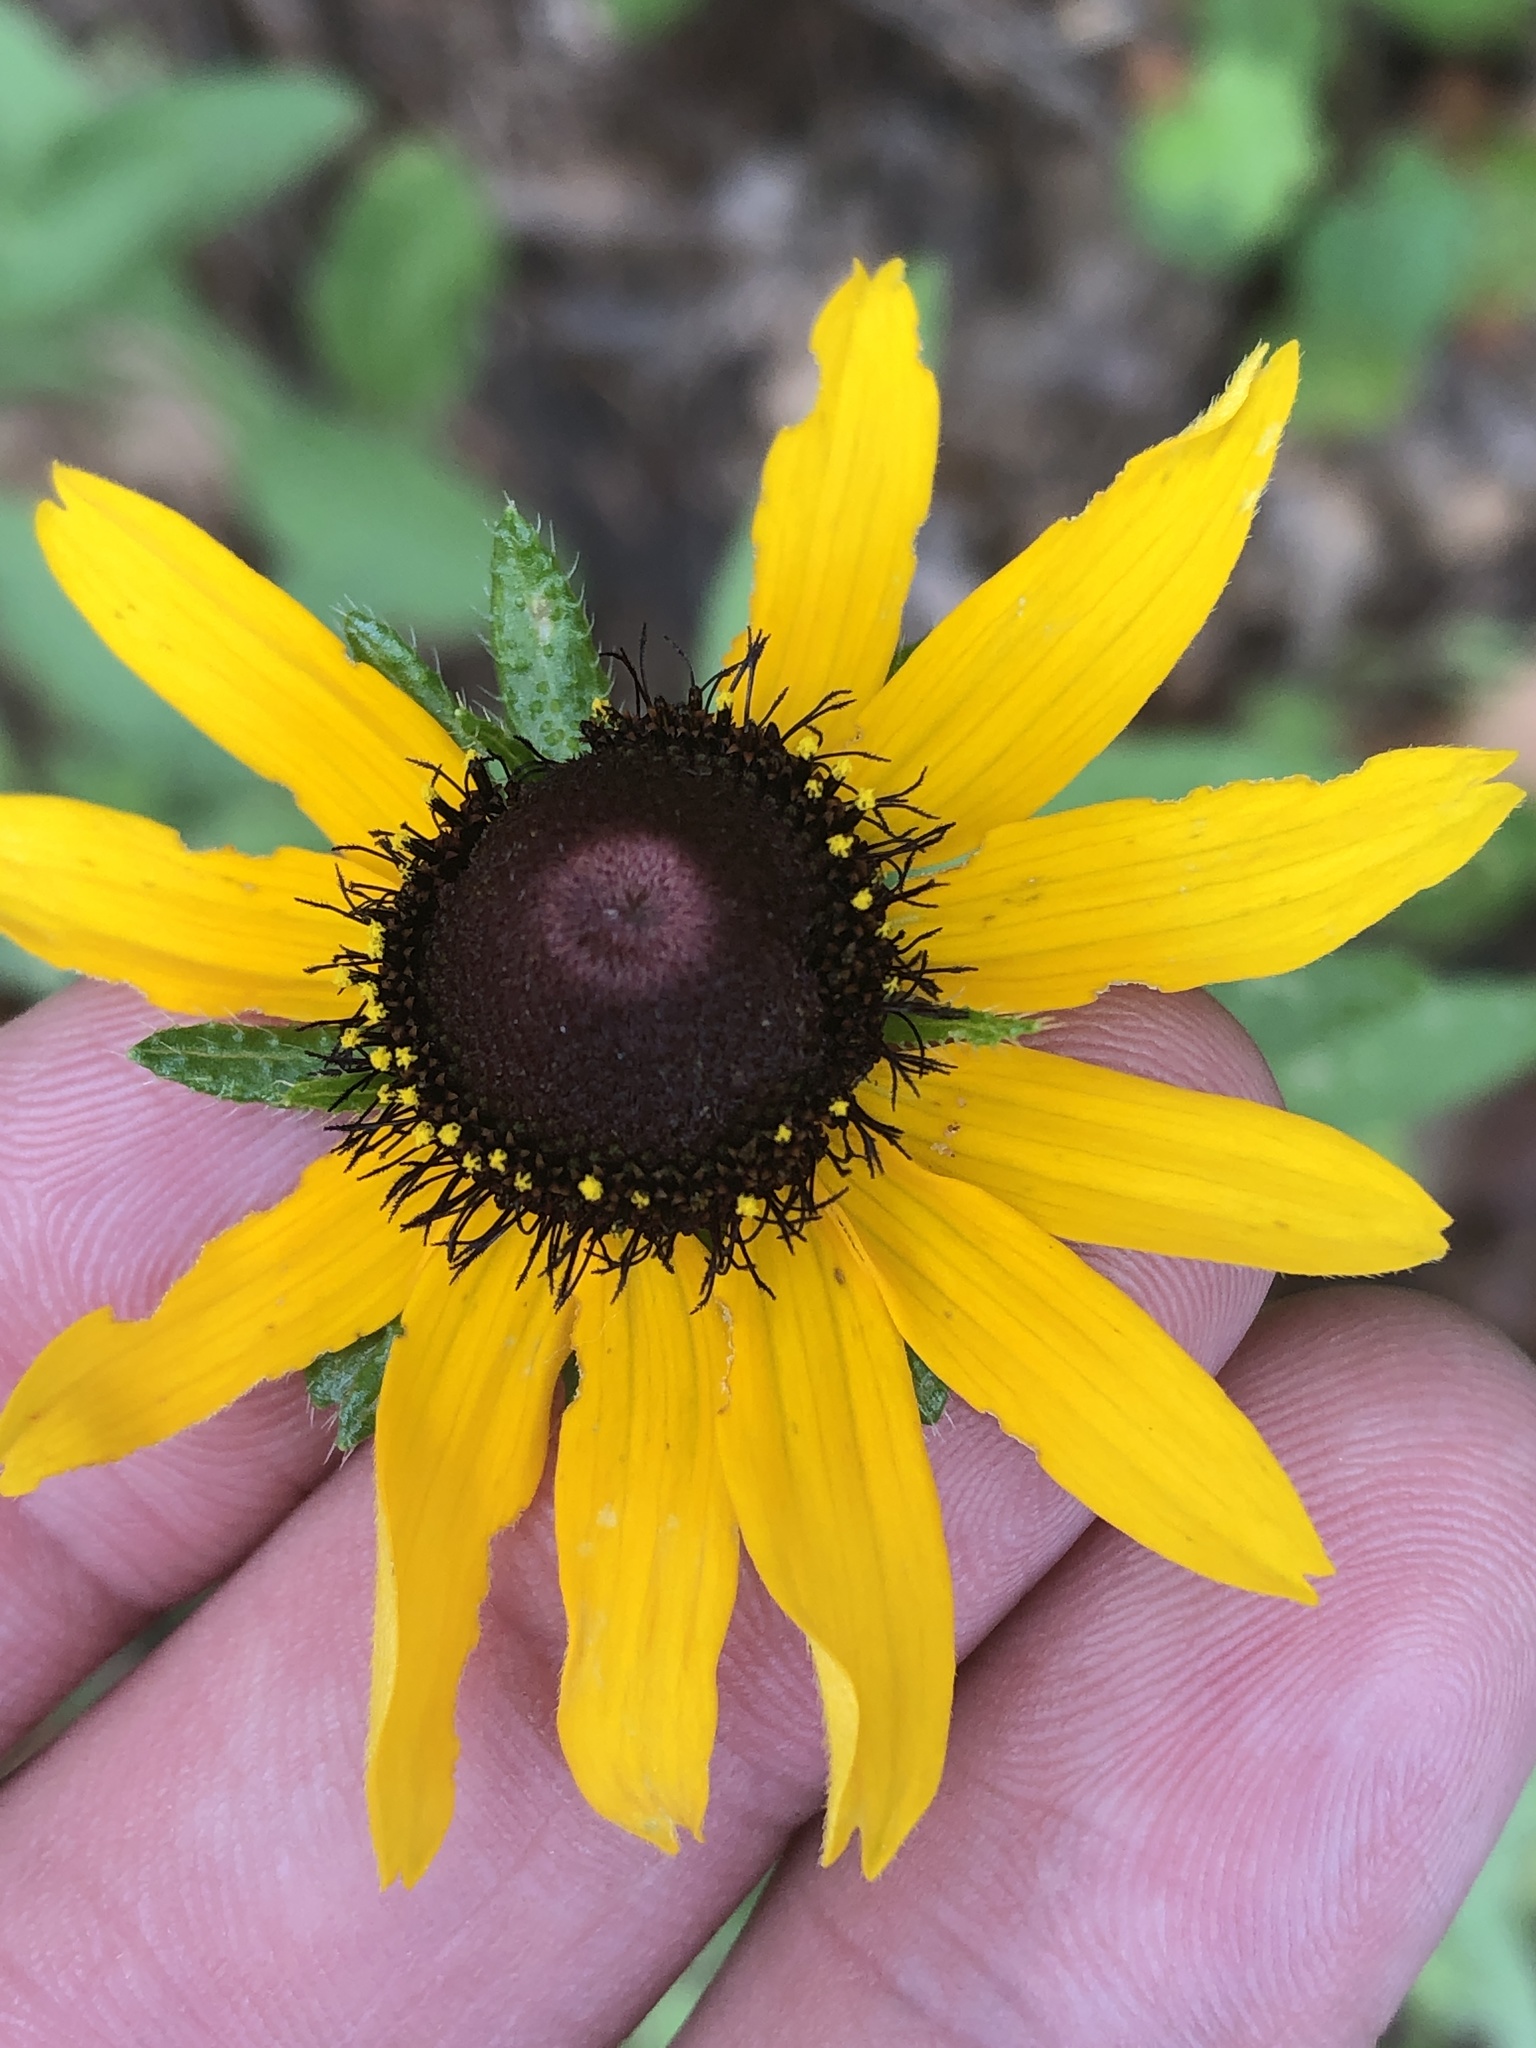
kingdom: Plantae
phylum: Tracheophyta
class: Magnoliopsida
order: Asterales
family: Asteraceae
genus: Rudbeckia
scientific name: Rudbeckia hirta
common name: Black-eyed-susan
